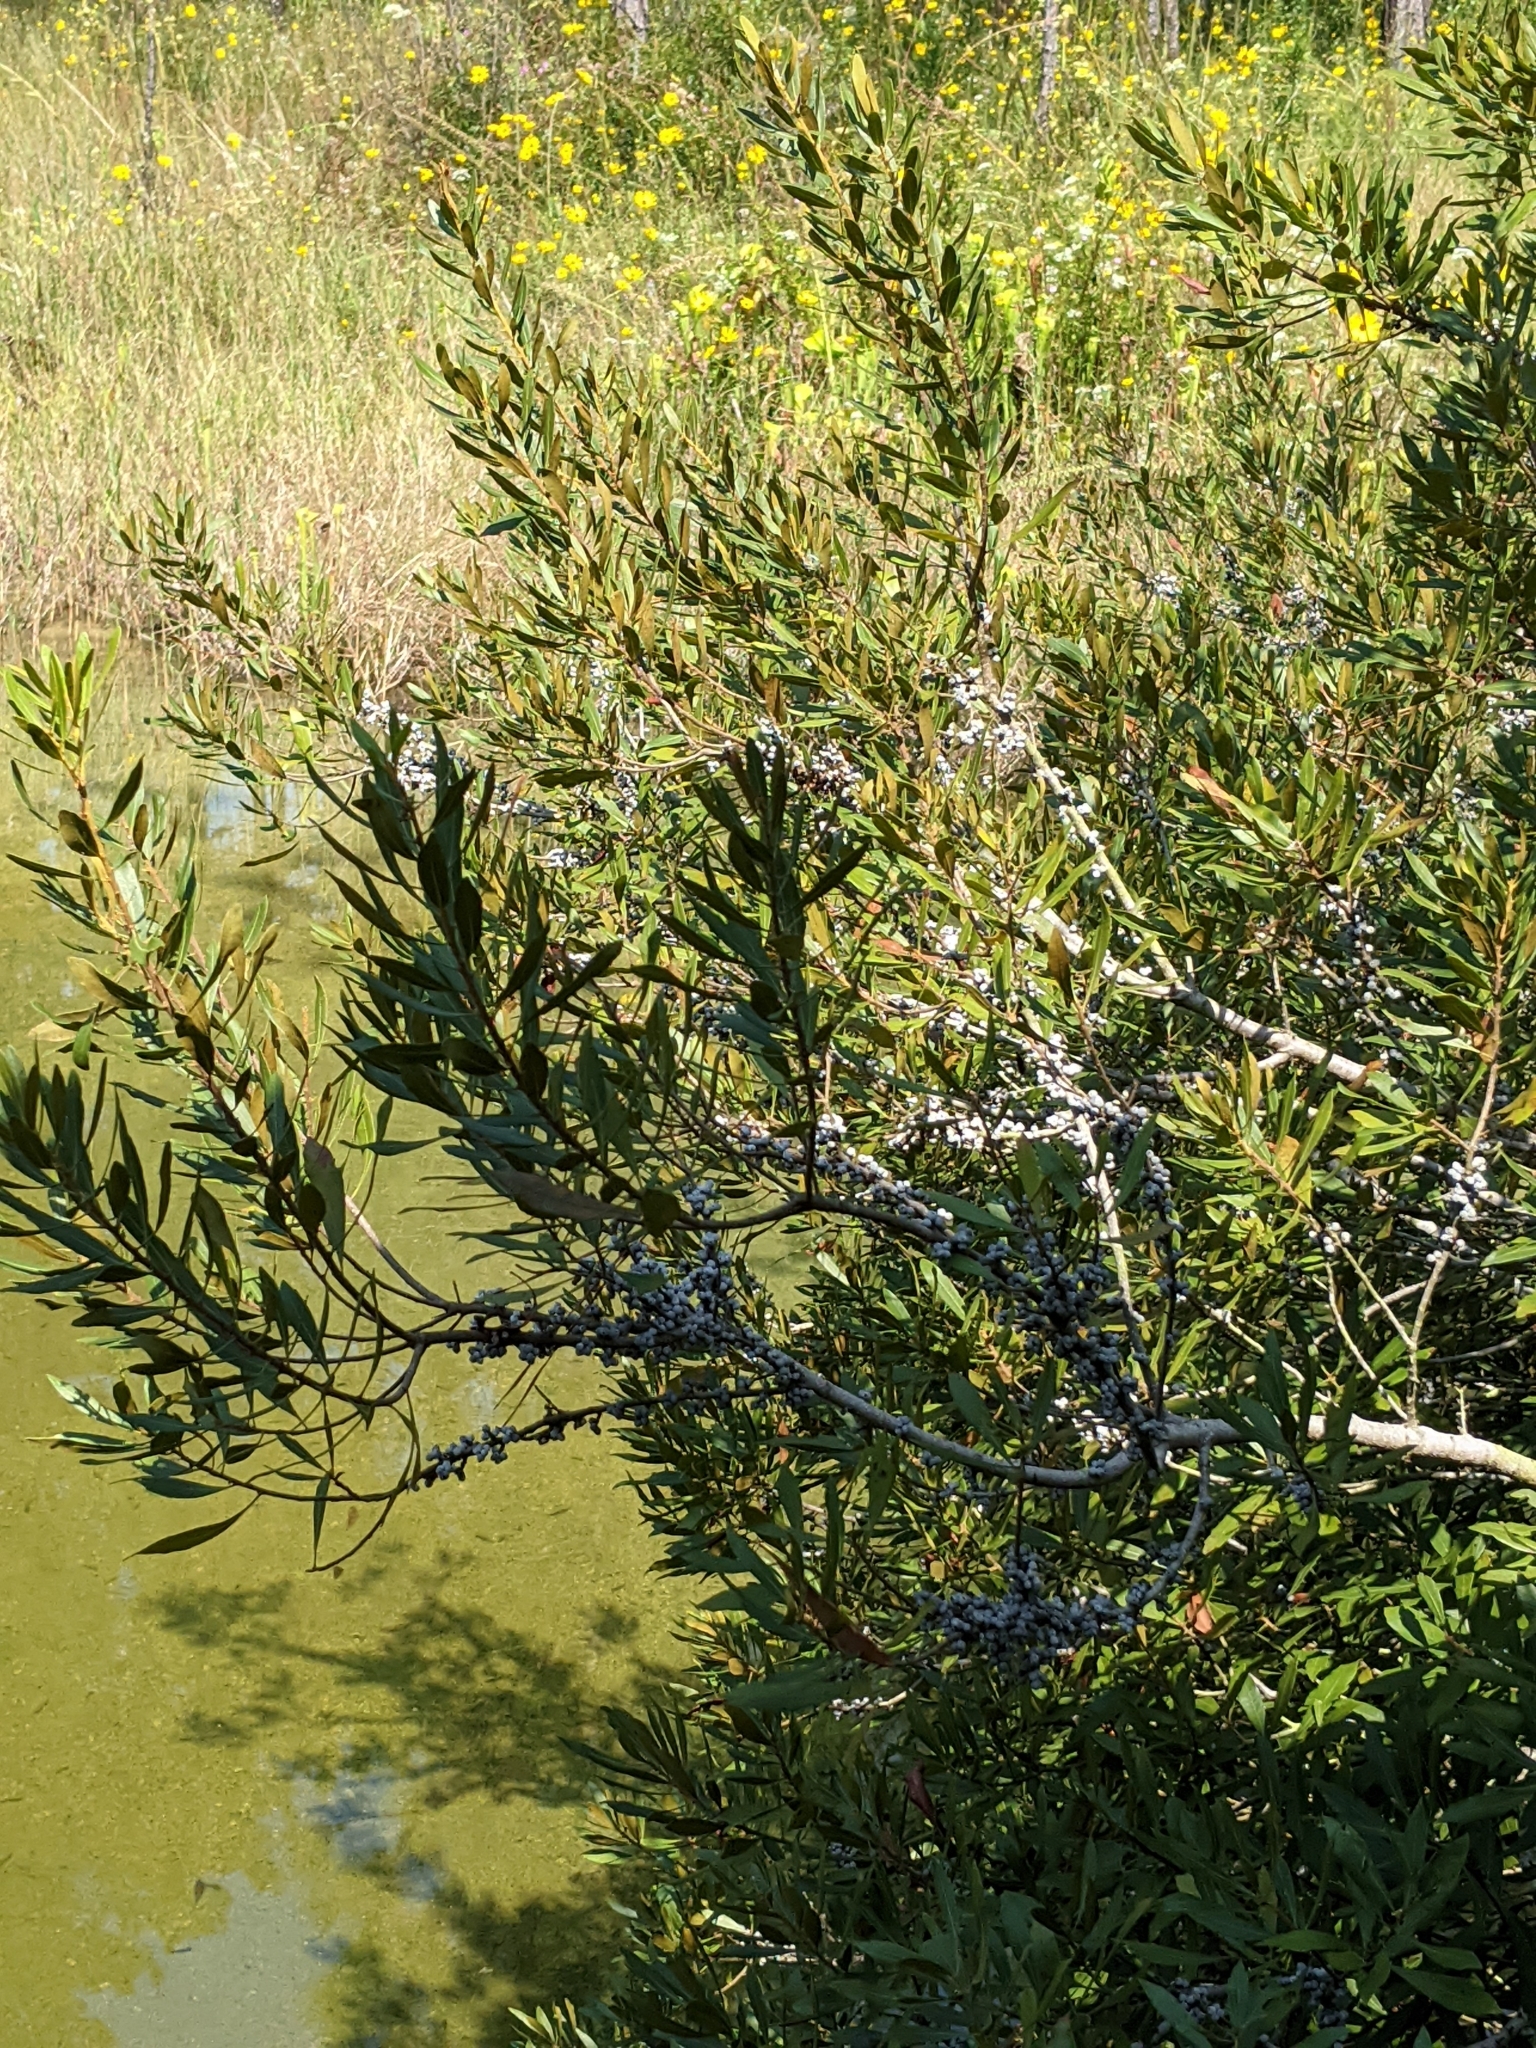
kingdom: Plantae
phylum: Tracheophyta
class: Magnoliopsida
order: Fagales
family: Myricaceae
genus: Morella
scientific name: Morella cerifera
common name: Wax myrtle
